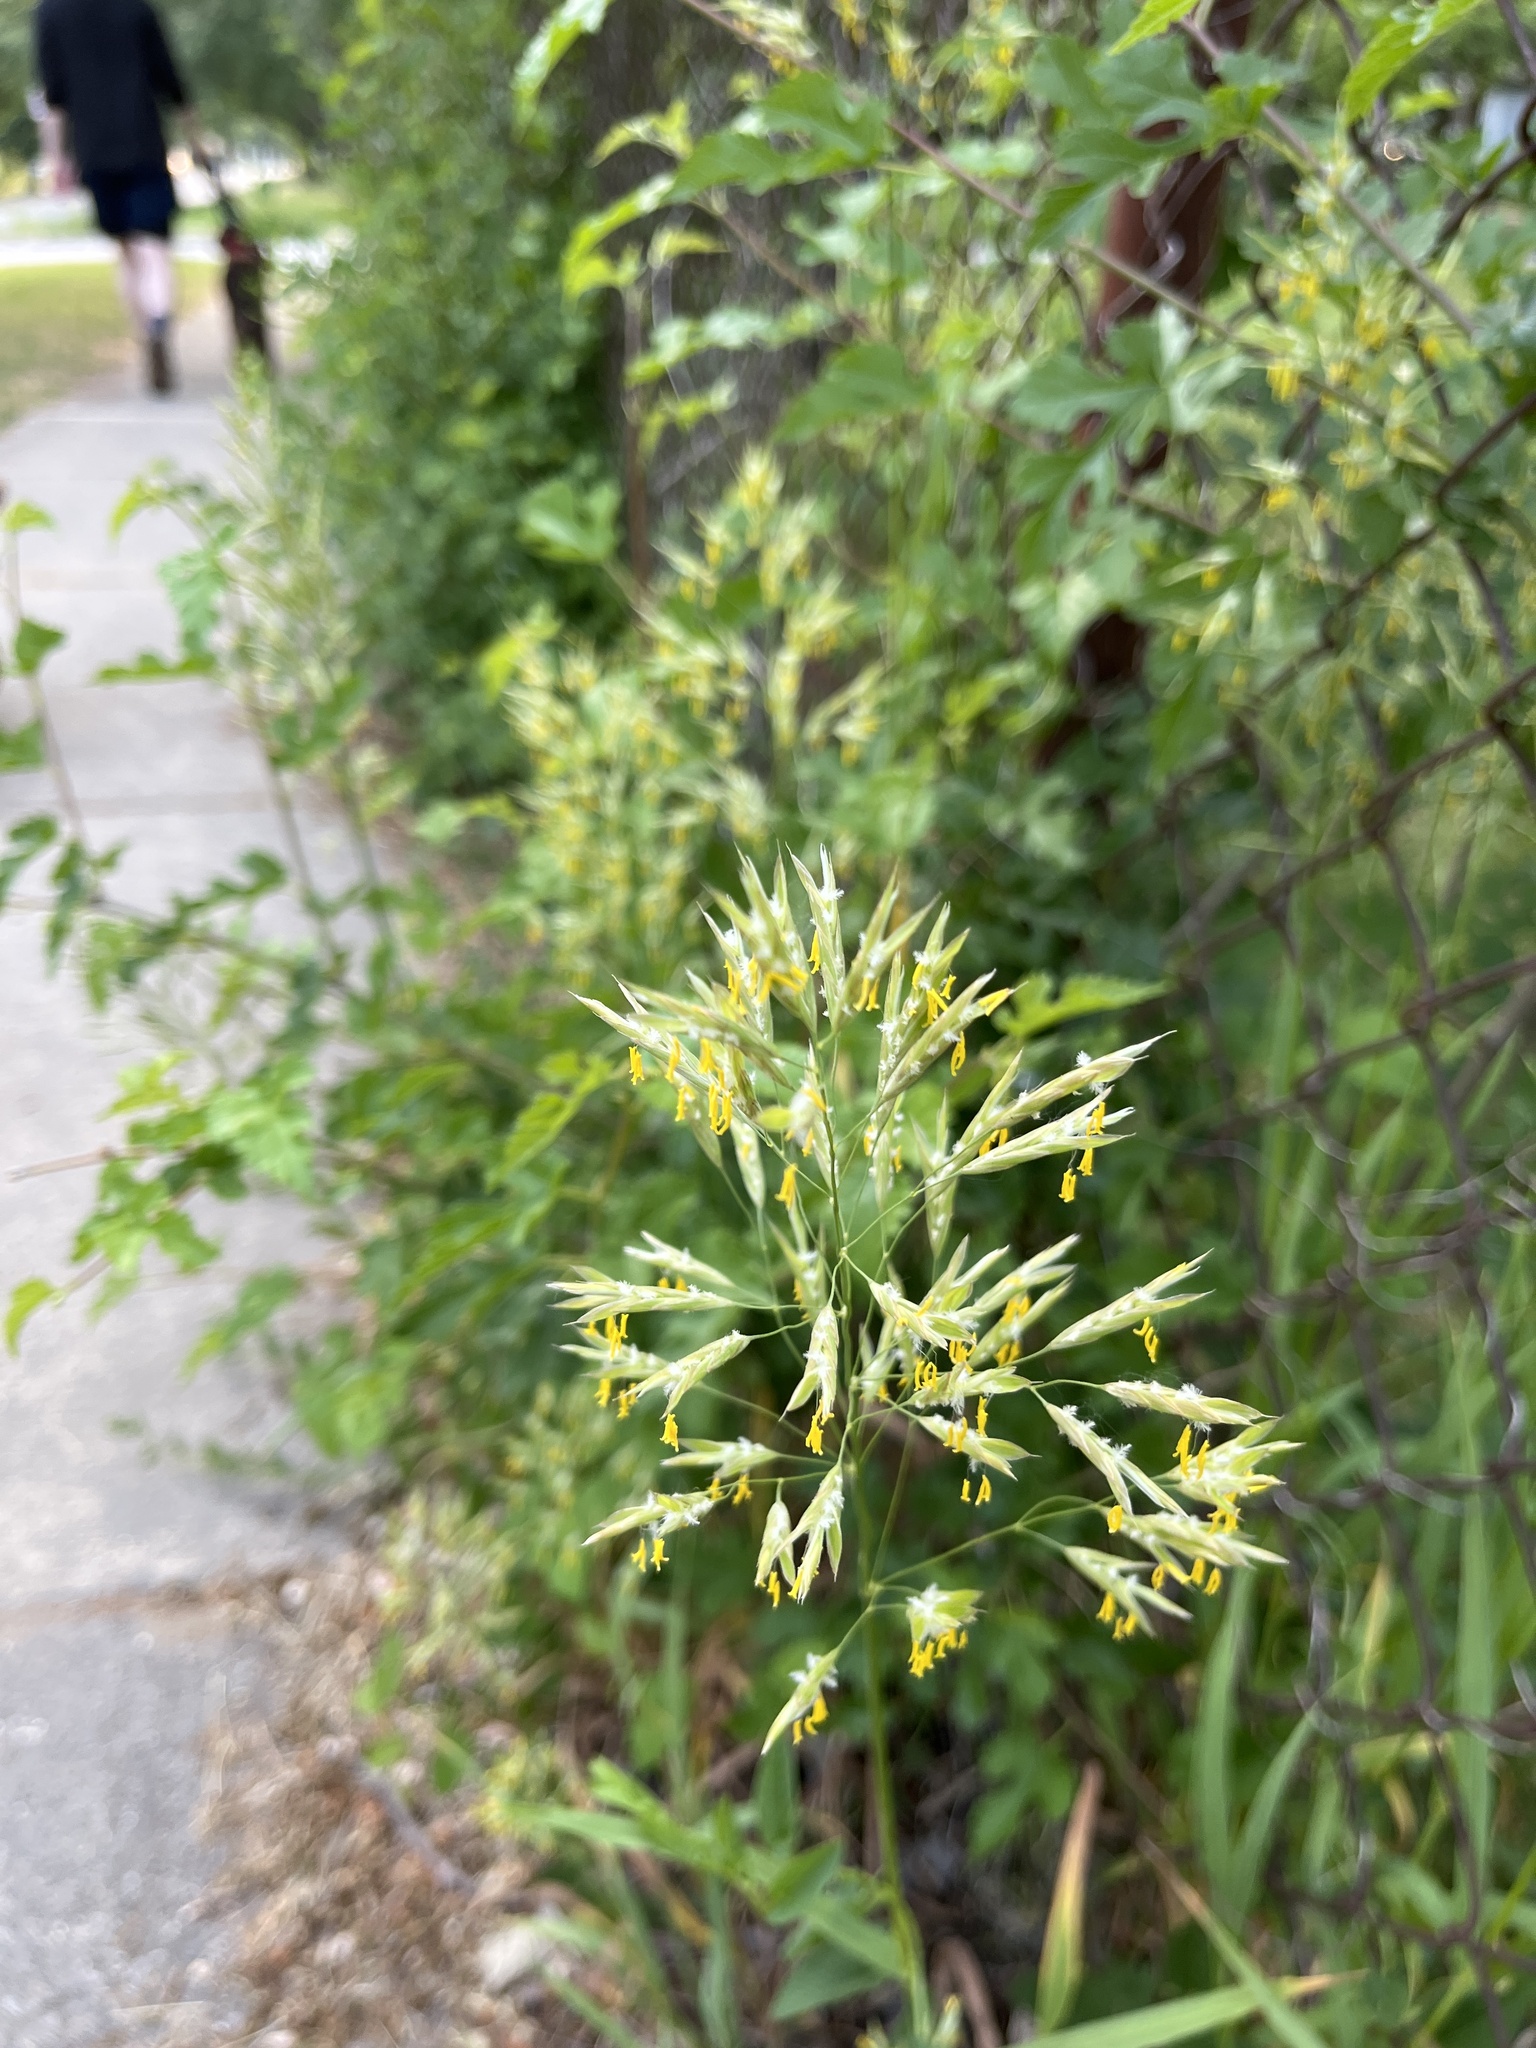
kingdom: Plantae
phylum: Tracheophyta
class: Liliopsida
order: Poales
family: Poaceae
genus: Bromus
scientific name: Bromus inermis
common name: Smooth brome
